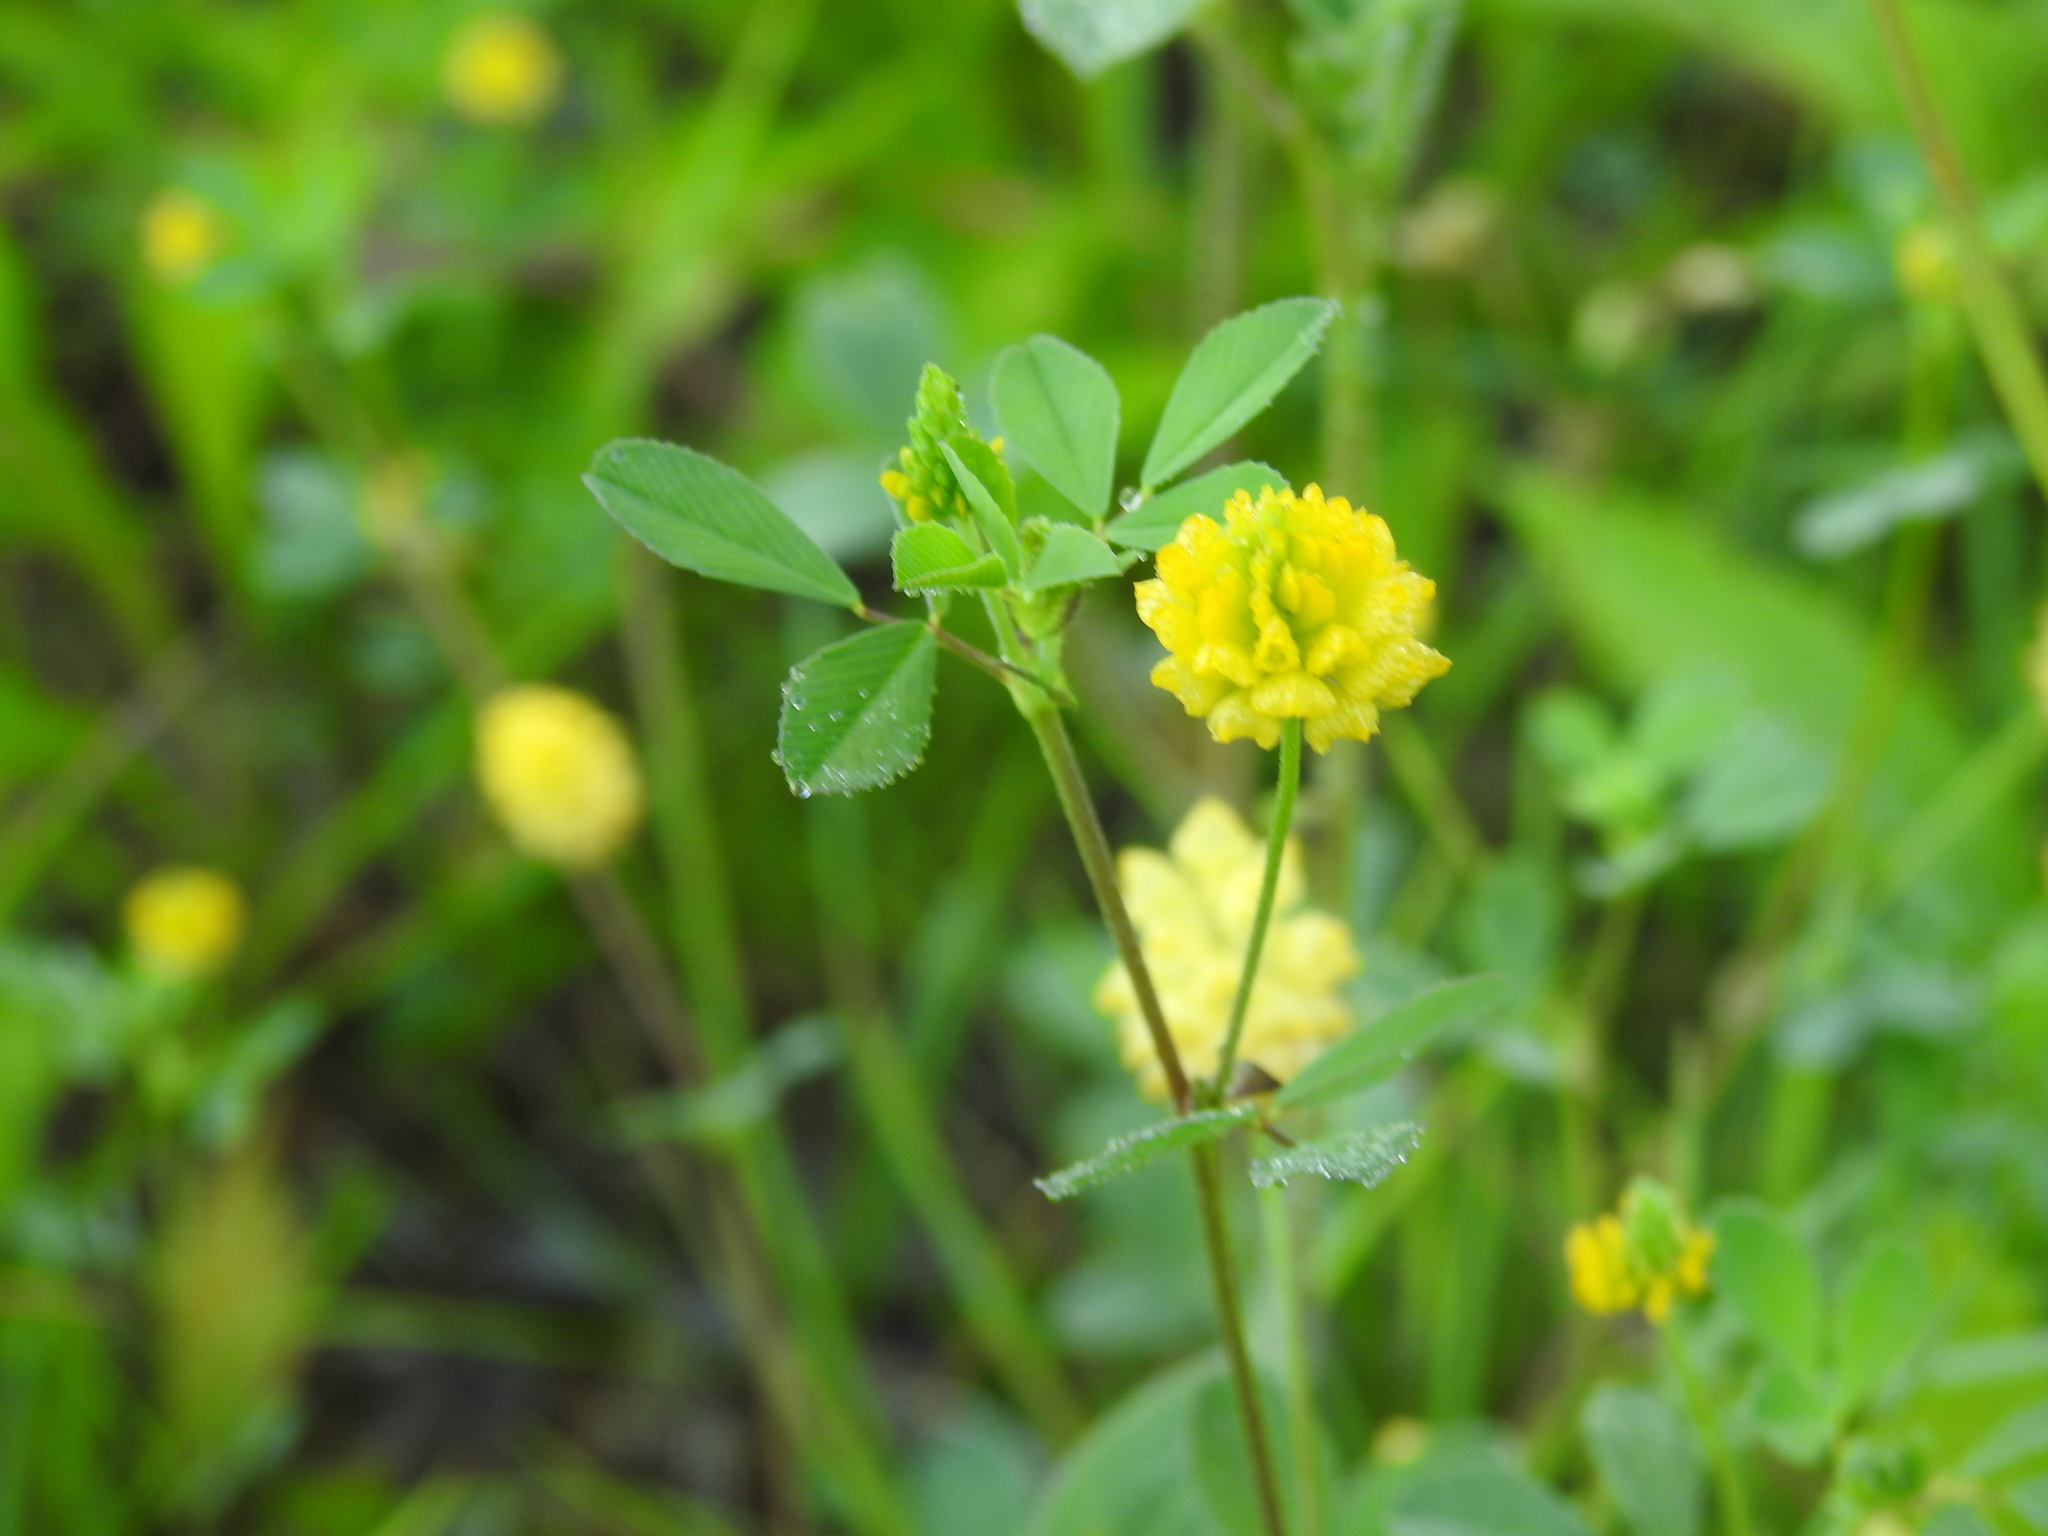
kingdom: Plantae
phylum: Tracheophyta
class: Magnoliopsida
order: Fabales
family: Fabaceae
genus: Trifolium
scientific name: Trifolium campestre
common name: Field clover
